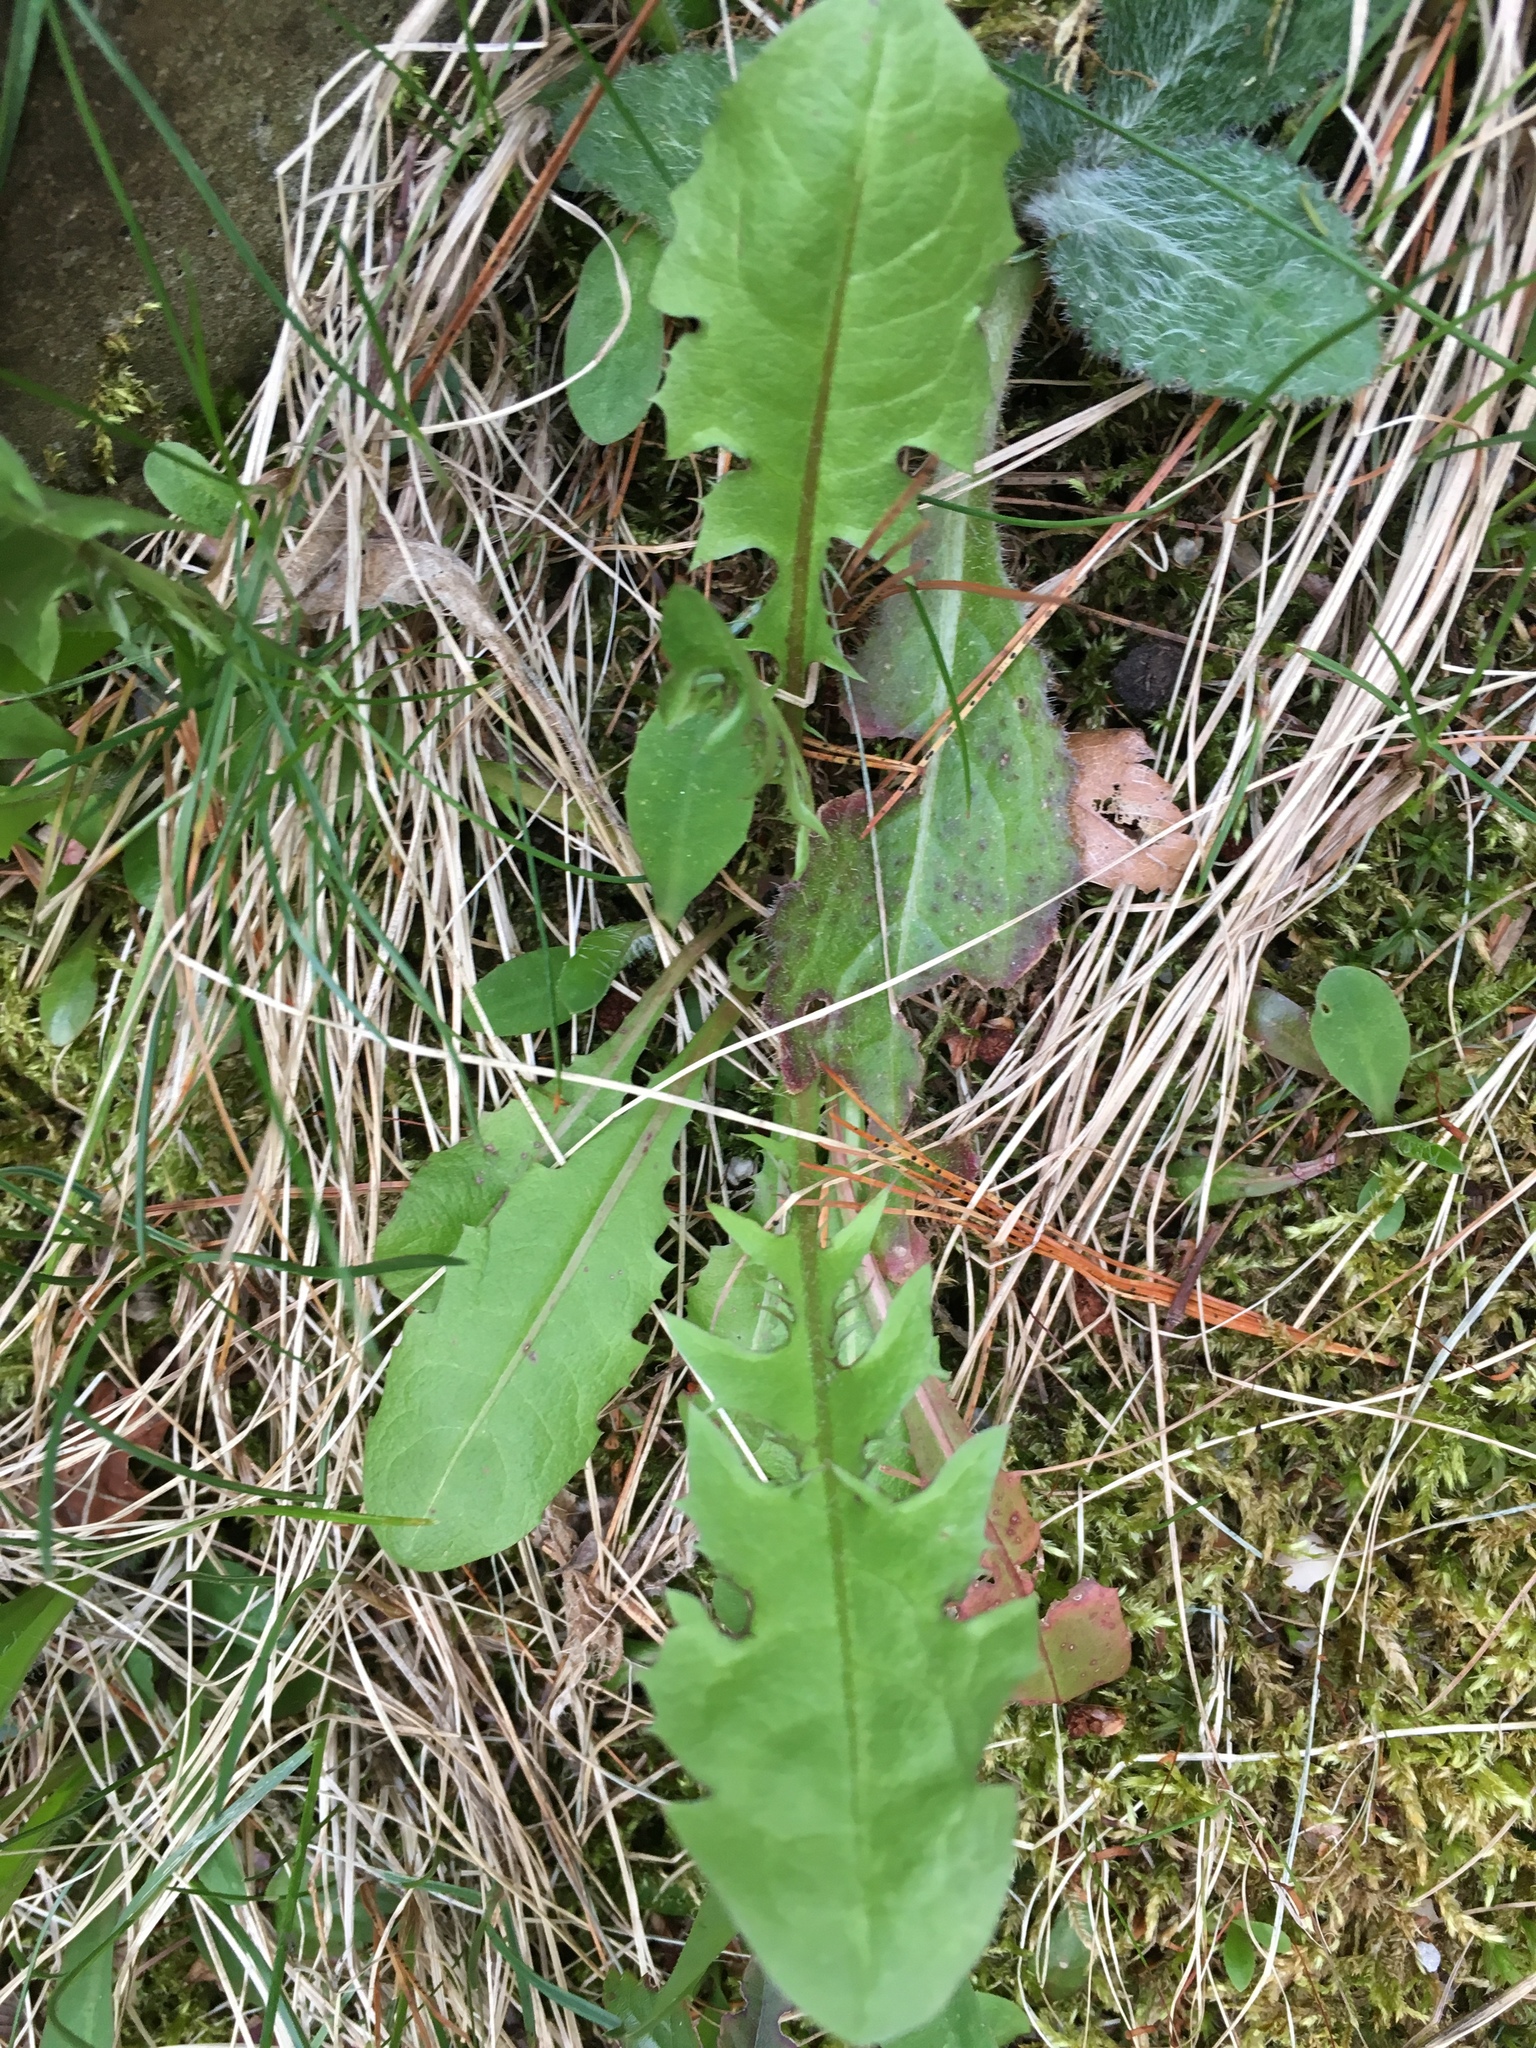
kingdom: Plantae
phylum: Tracheophyta
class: Magnoliopsida
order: Asterales
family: Asteraceae
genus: Taraxacum
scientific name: Taraxacum officinale
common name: Common dandelion
